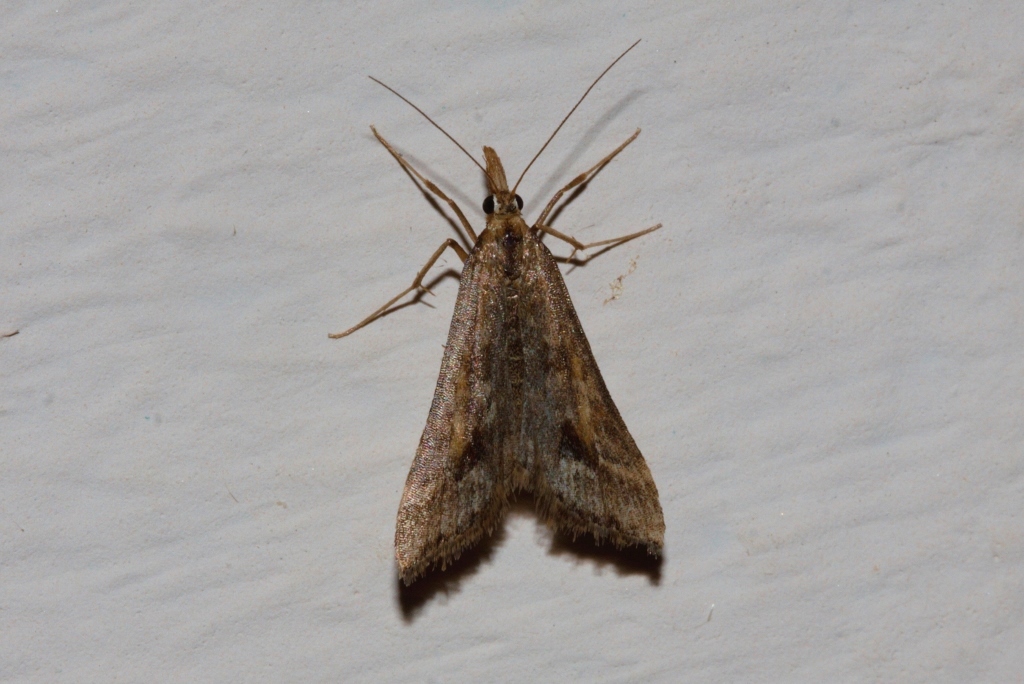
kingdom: Animalia
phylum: Arthropoda
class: Insecta
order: Lepidoptera
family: Crambidae
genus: Diasemia
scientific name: Diasemia monostigma
